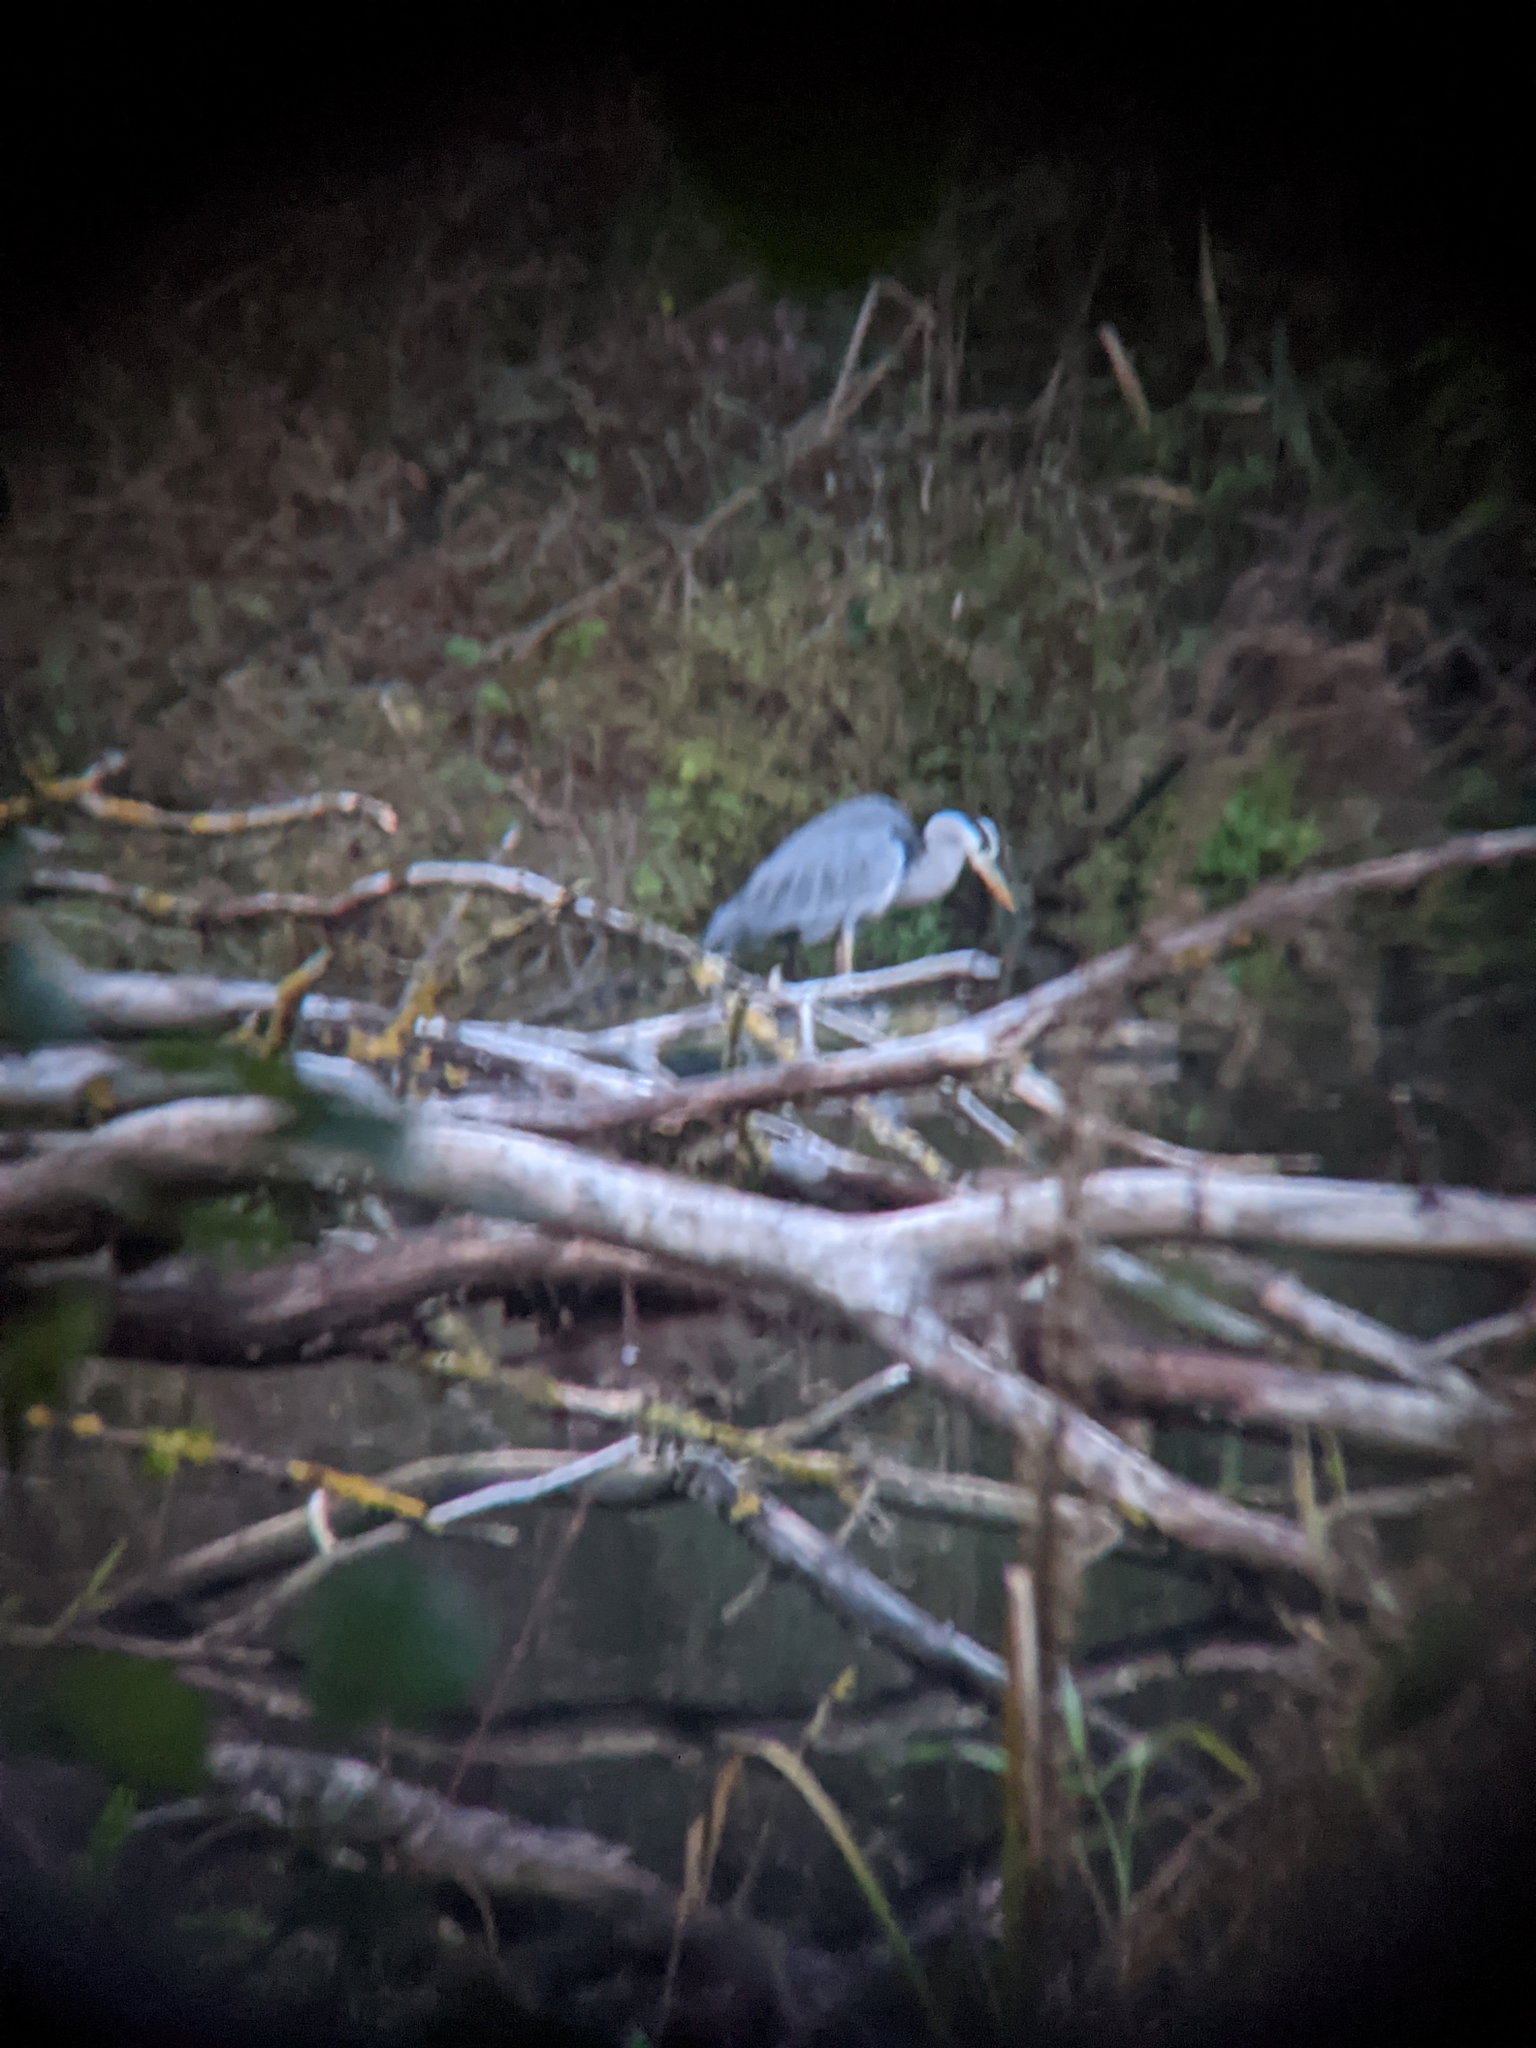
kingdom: Animalia
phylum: Chordata
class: Aves
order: Pelecaniformes
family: Ardeidae
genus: Ardea
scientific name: Ardea cinerea
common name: Grey heron
